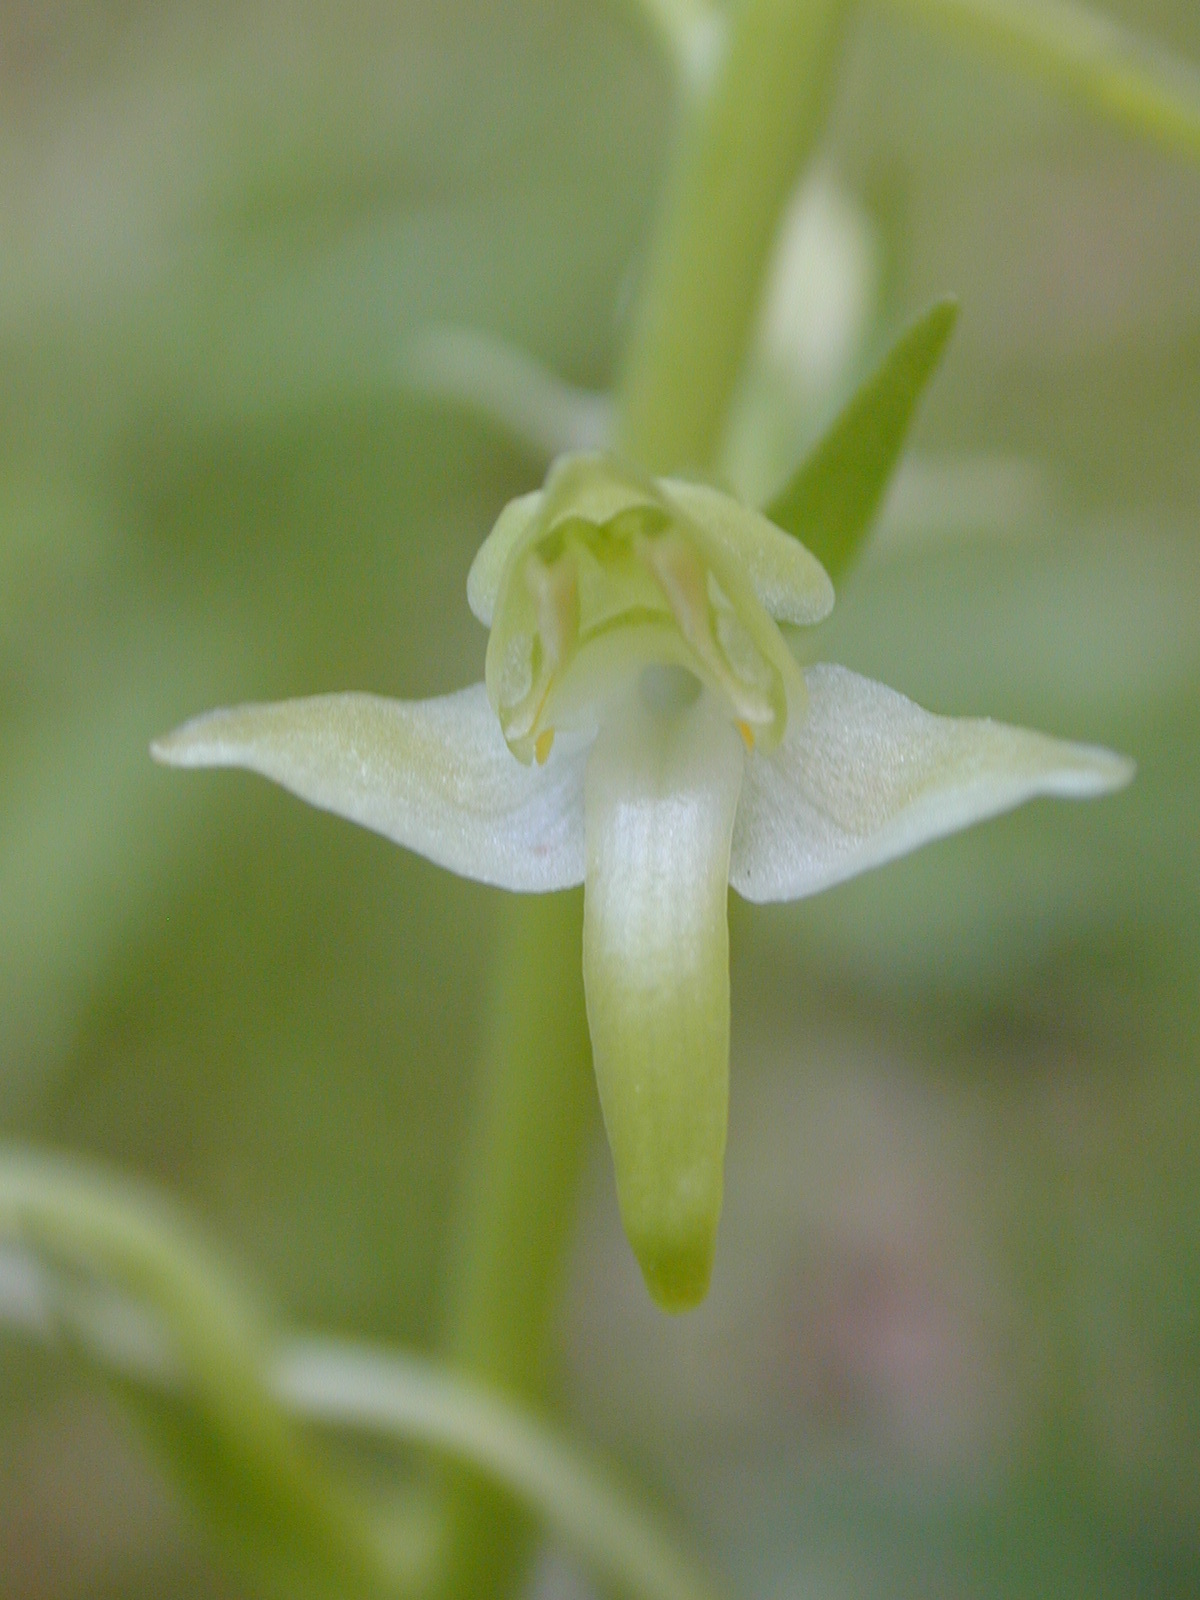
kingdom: Plantae
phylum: Tracheophyta
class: Liliopsida
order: Asparagales
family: Orchidaceae
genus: Platanthera
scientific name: Platanthera chlorantha
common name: Greater butterfly-orchid
